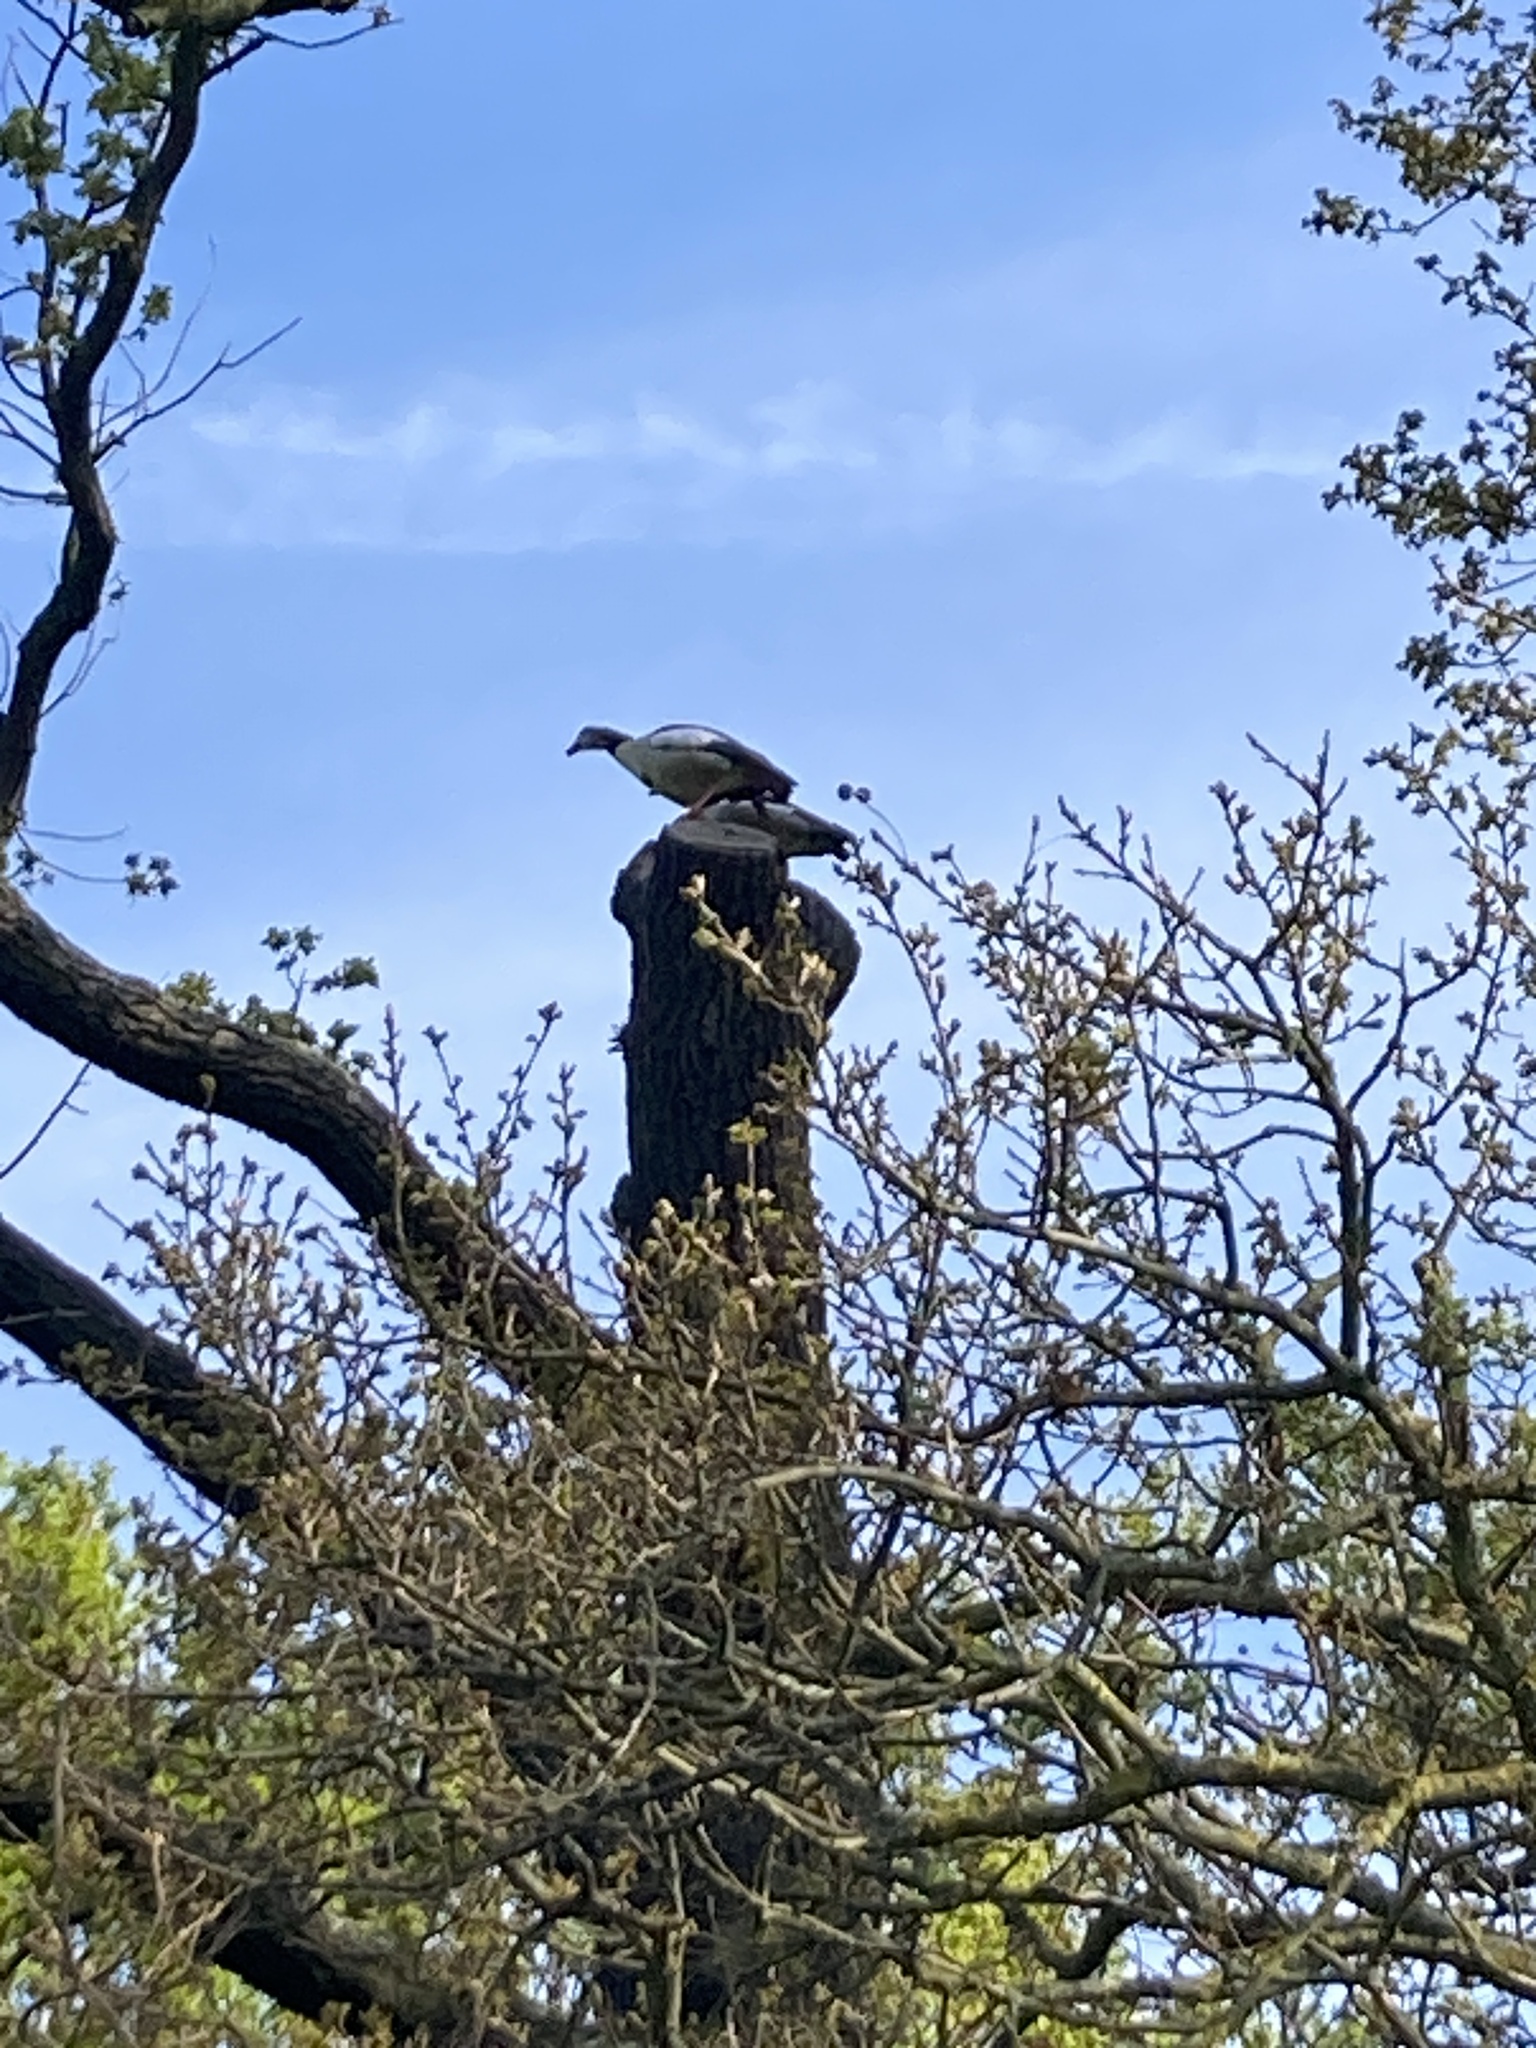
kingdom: Animalia
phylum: Chordata
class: Aves
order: Anseriformes
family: Anatidae
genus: Alopochen
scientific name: Alopochen aegyptiaca
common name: Egyptian goose
